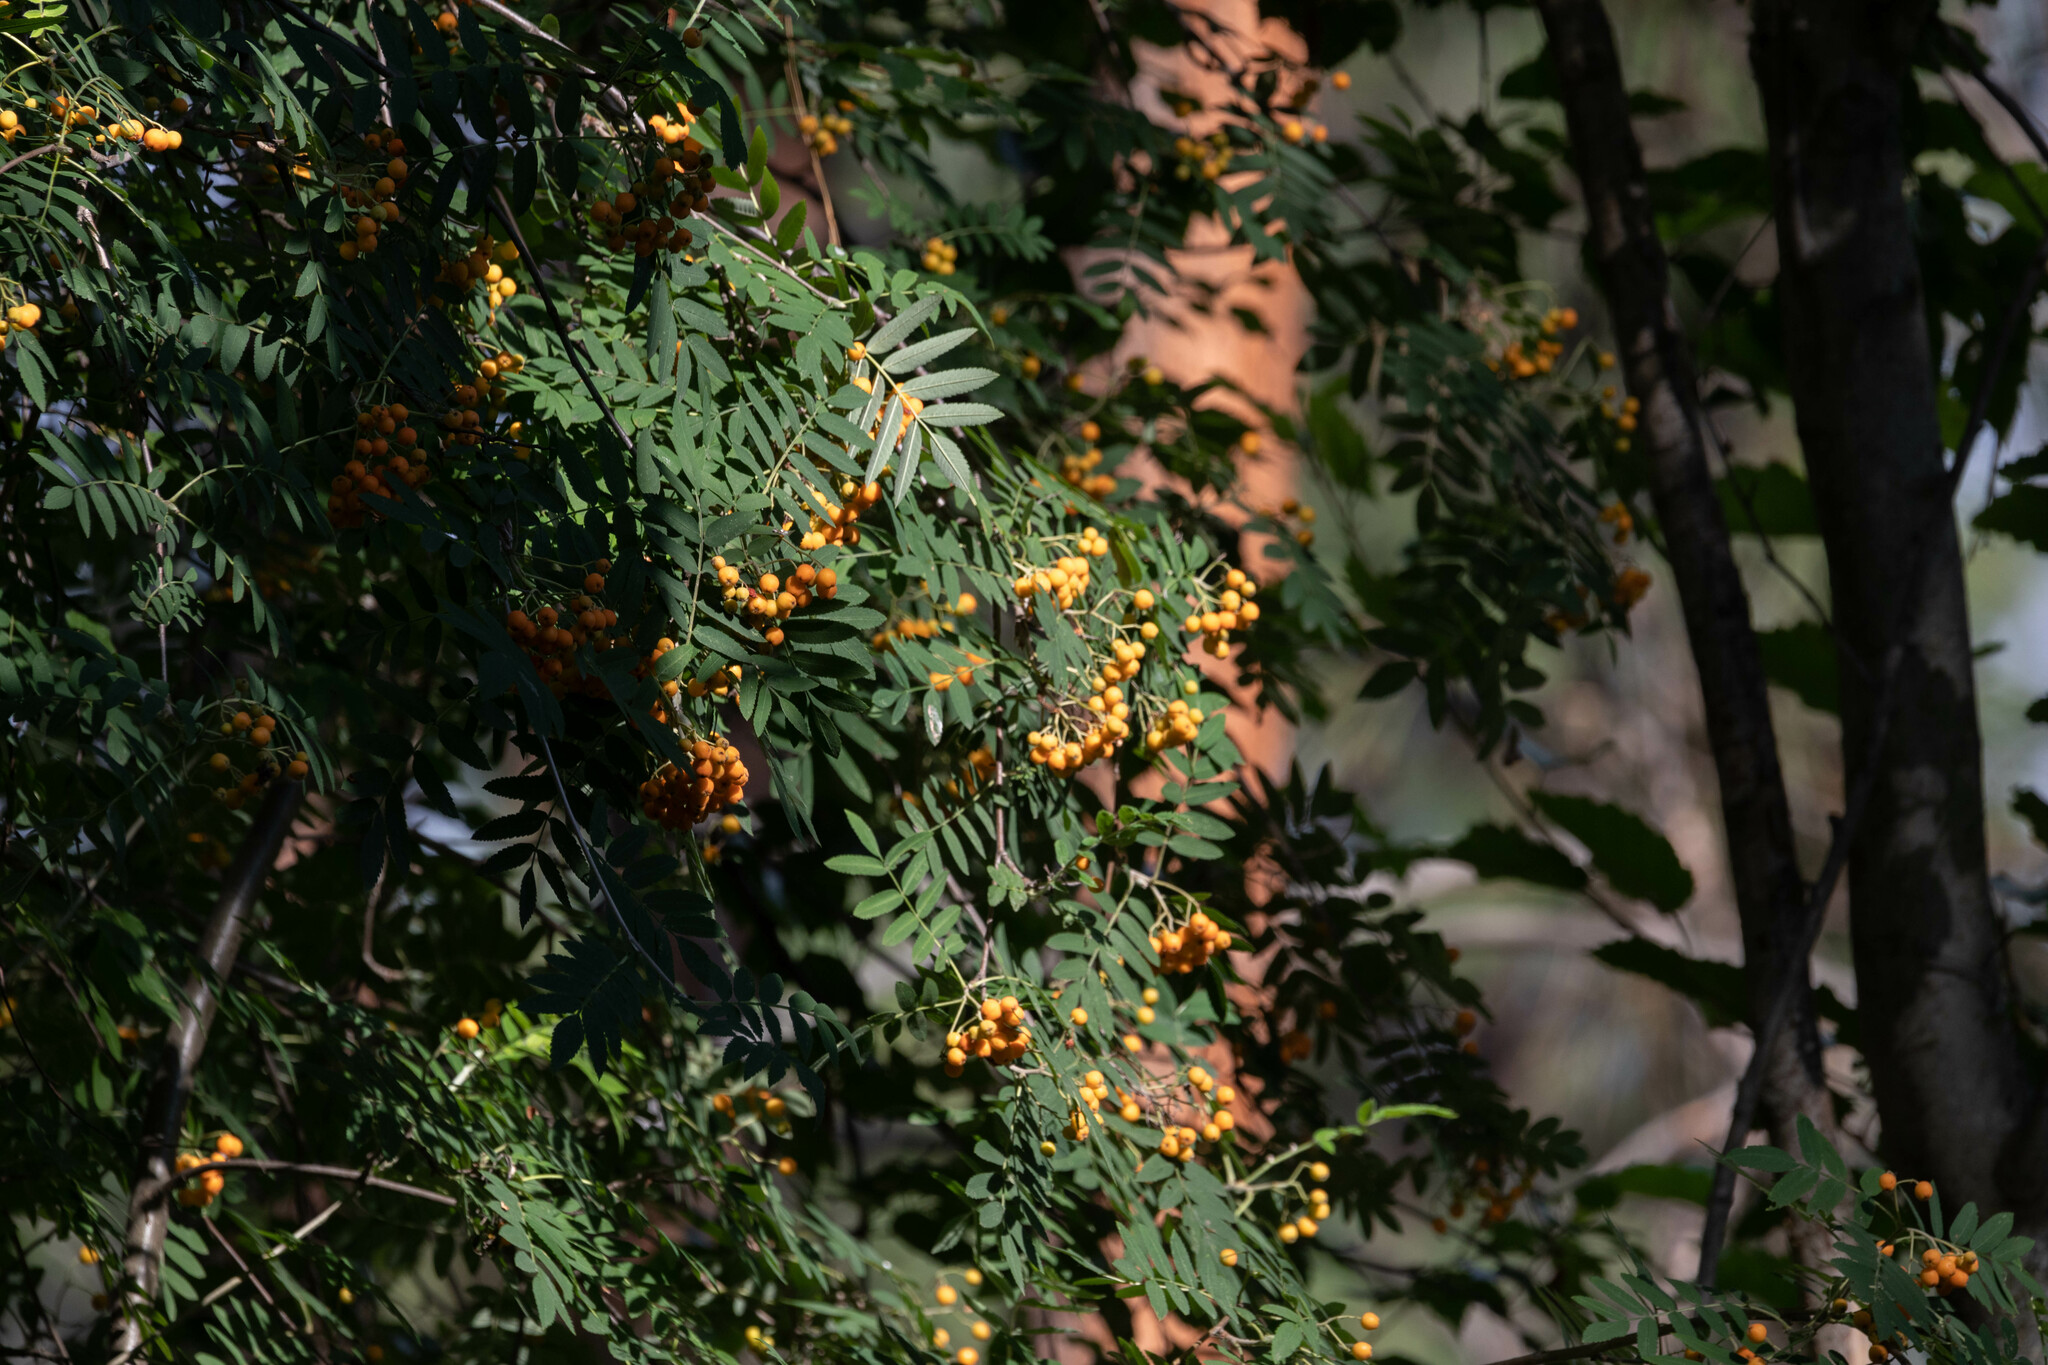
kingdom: Plantae
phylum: Tracheophyta
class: Magnoliopsida
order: Rosales
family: Rosaceae
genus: Sorbus
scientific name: Sorbus aucuparia
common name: Rowan
